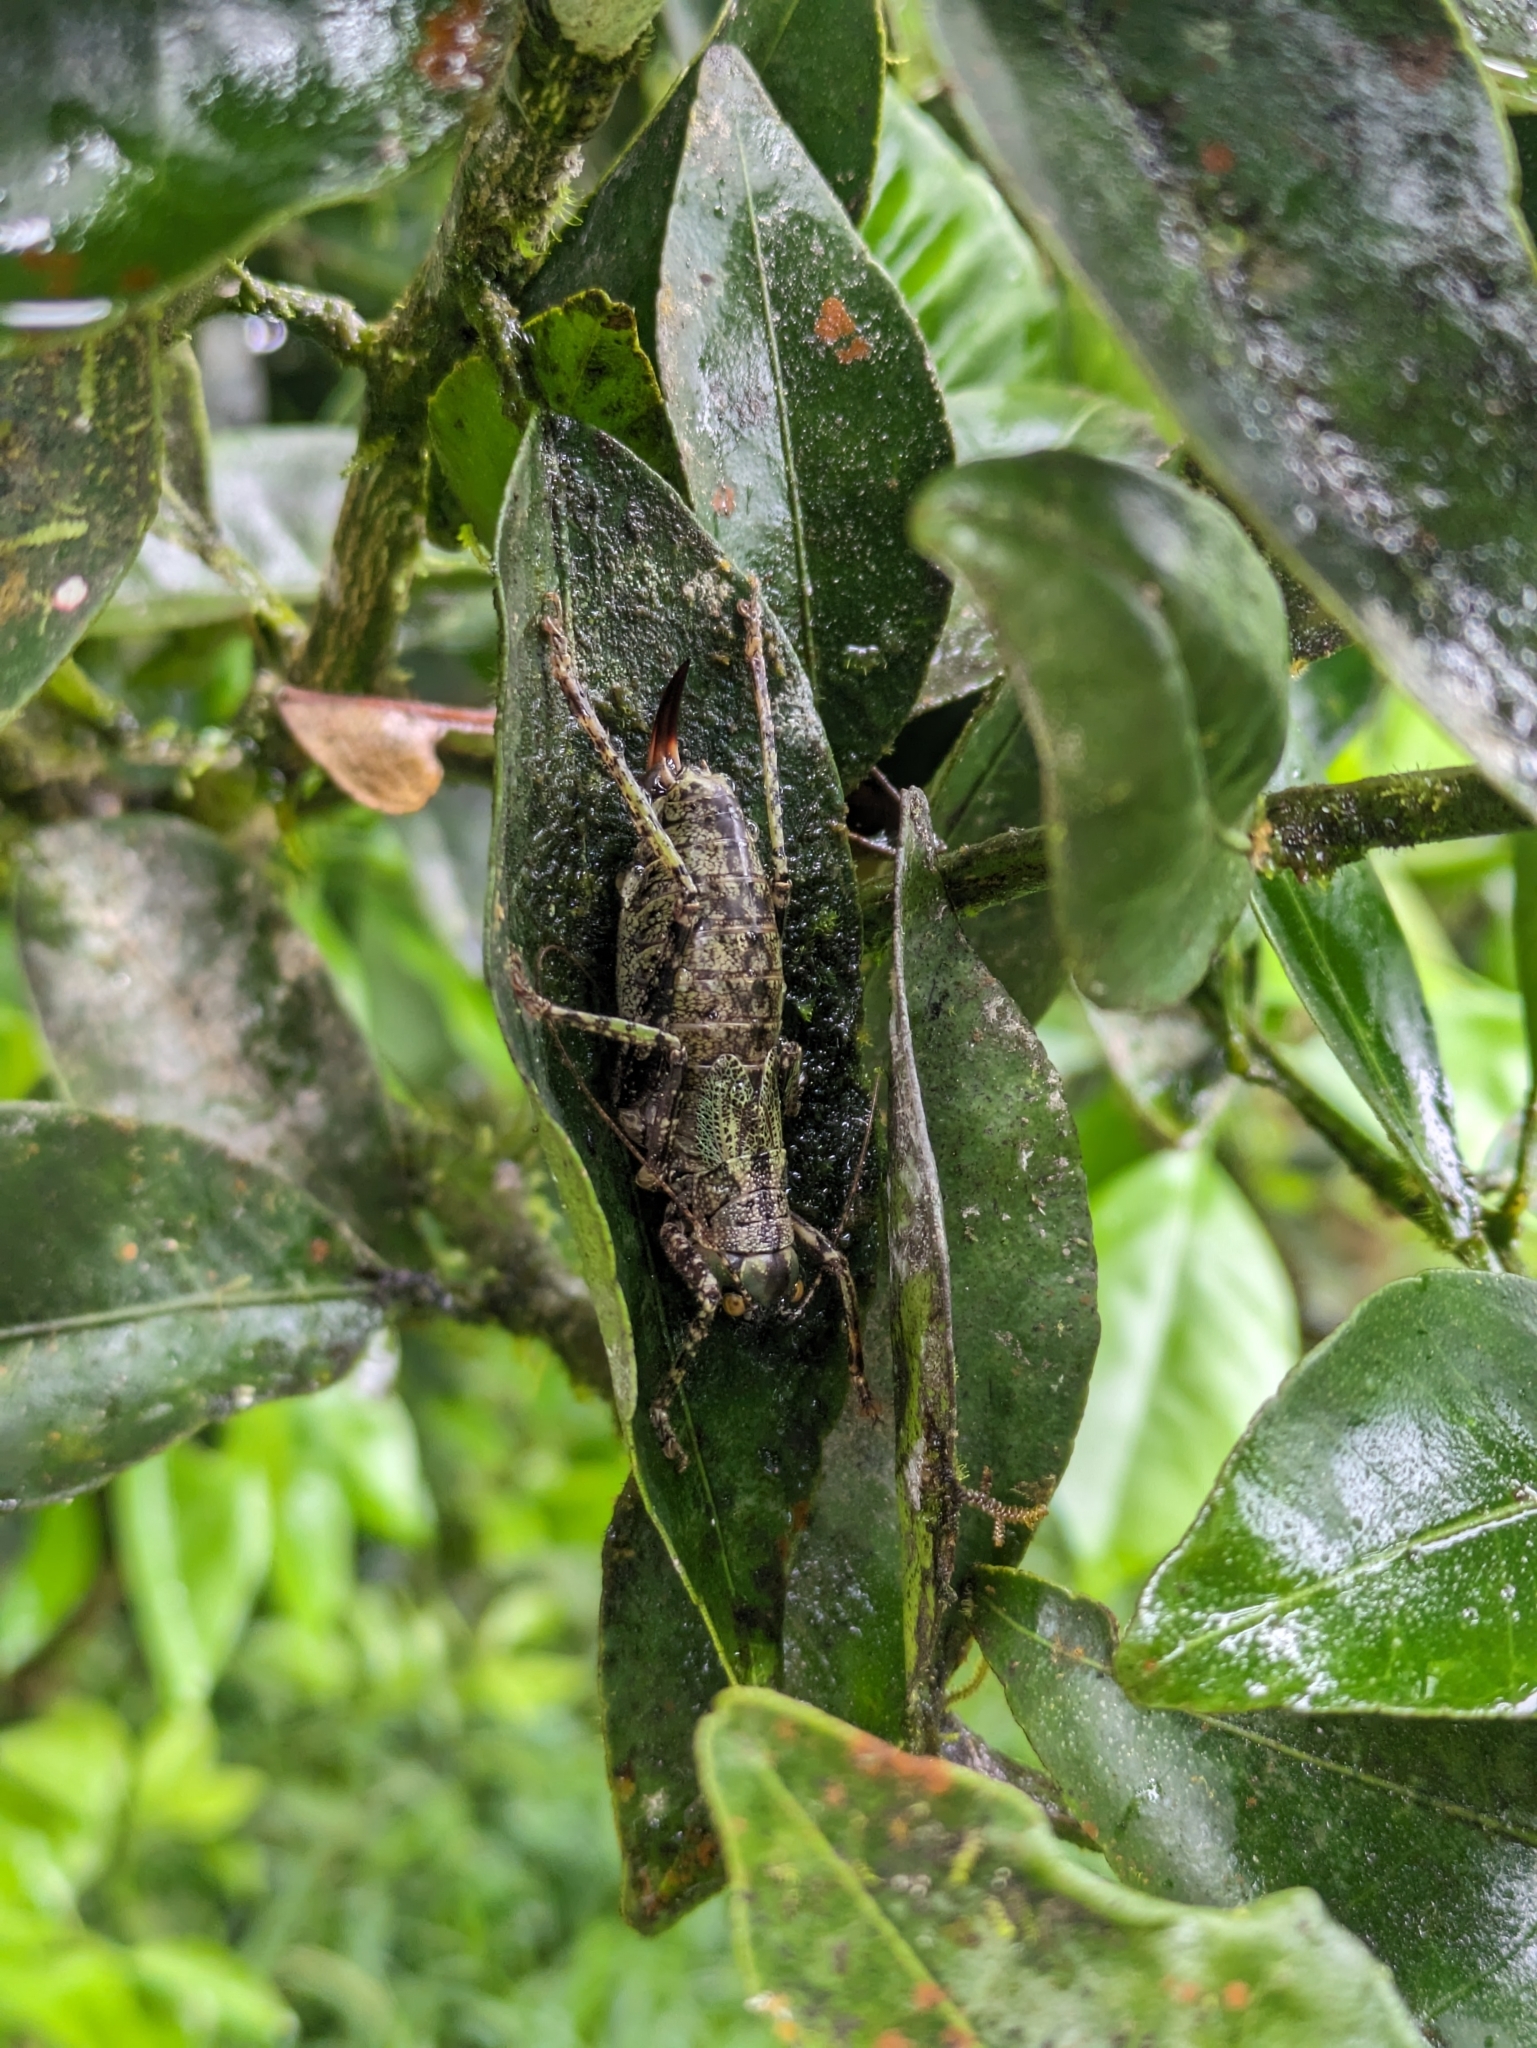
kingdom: Animalia
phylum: Arthropoda
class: Insecta
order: Orthoptera
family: Tettigoniidae
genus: Nesoecia
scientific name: Nesoecia cooksonii
